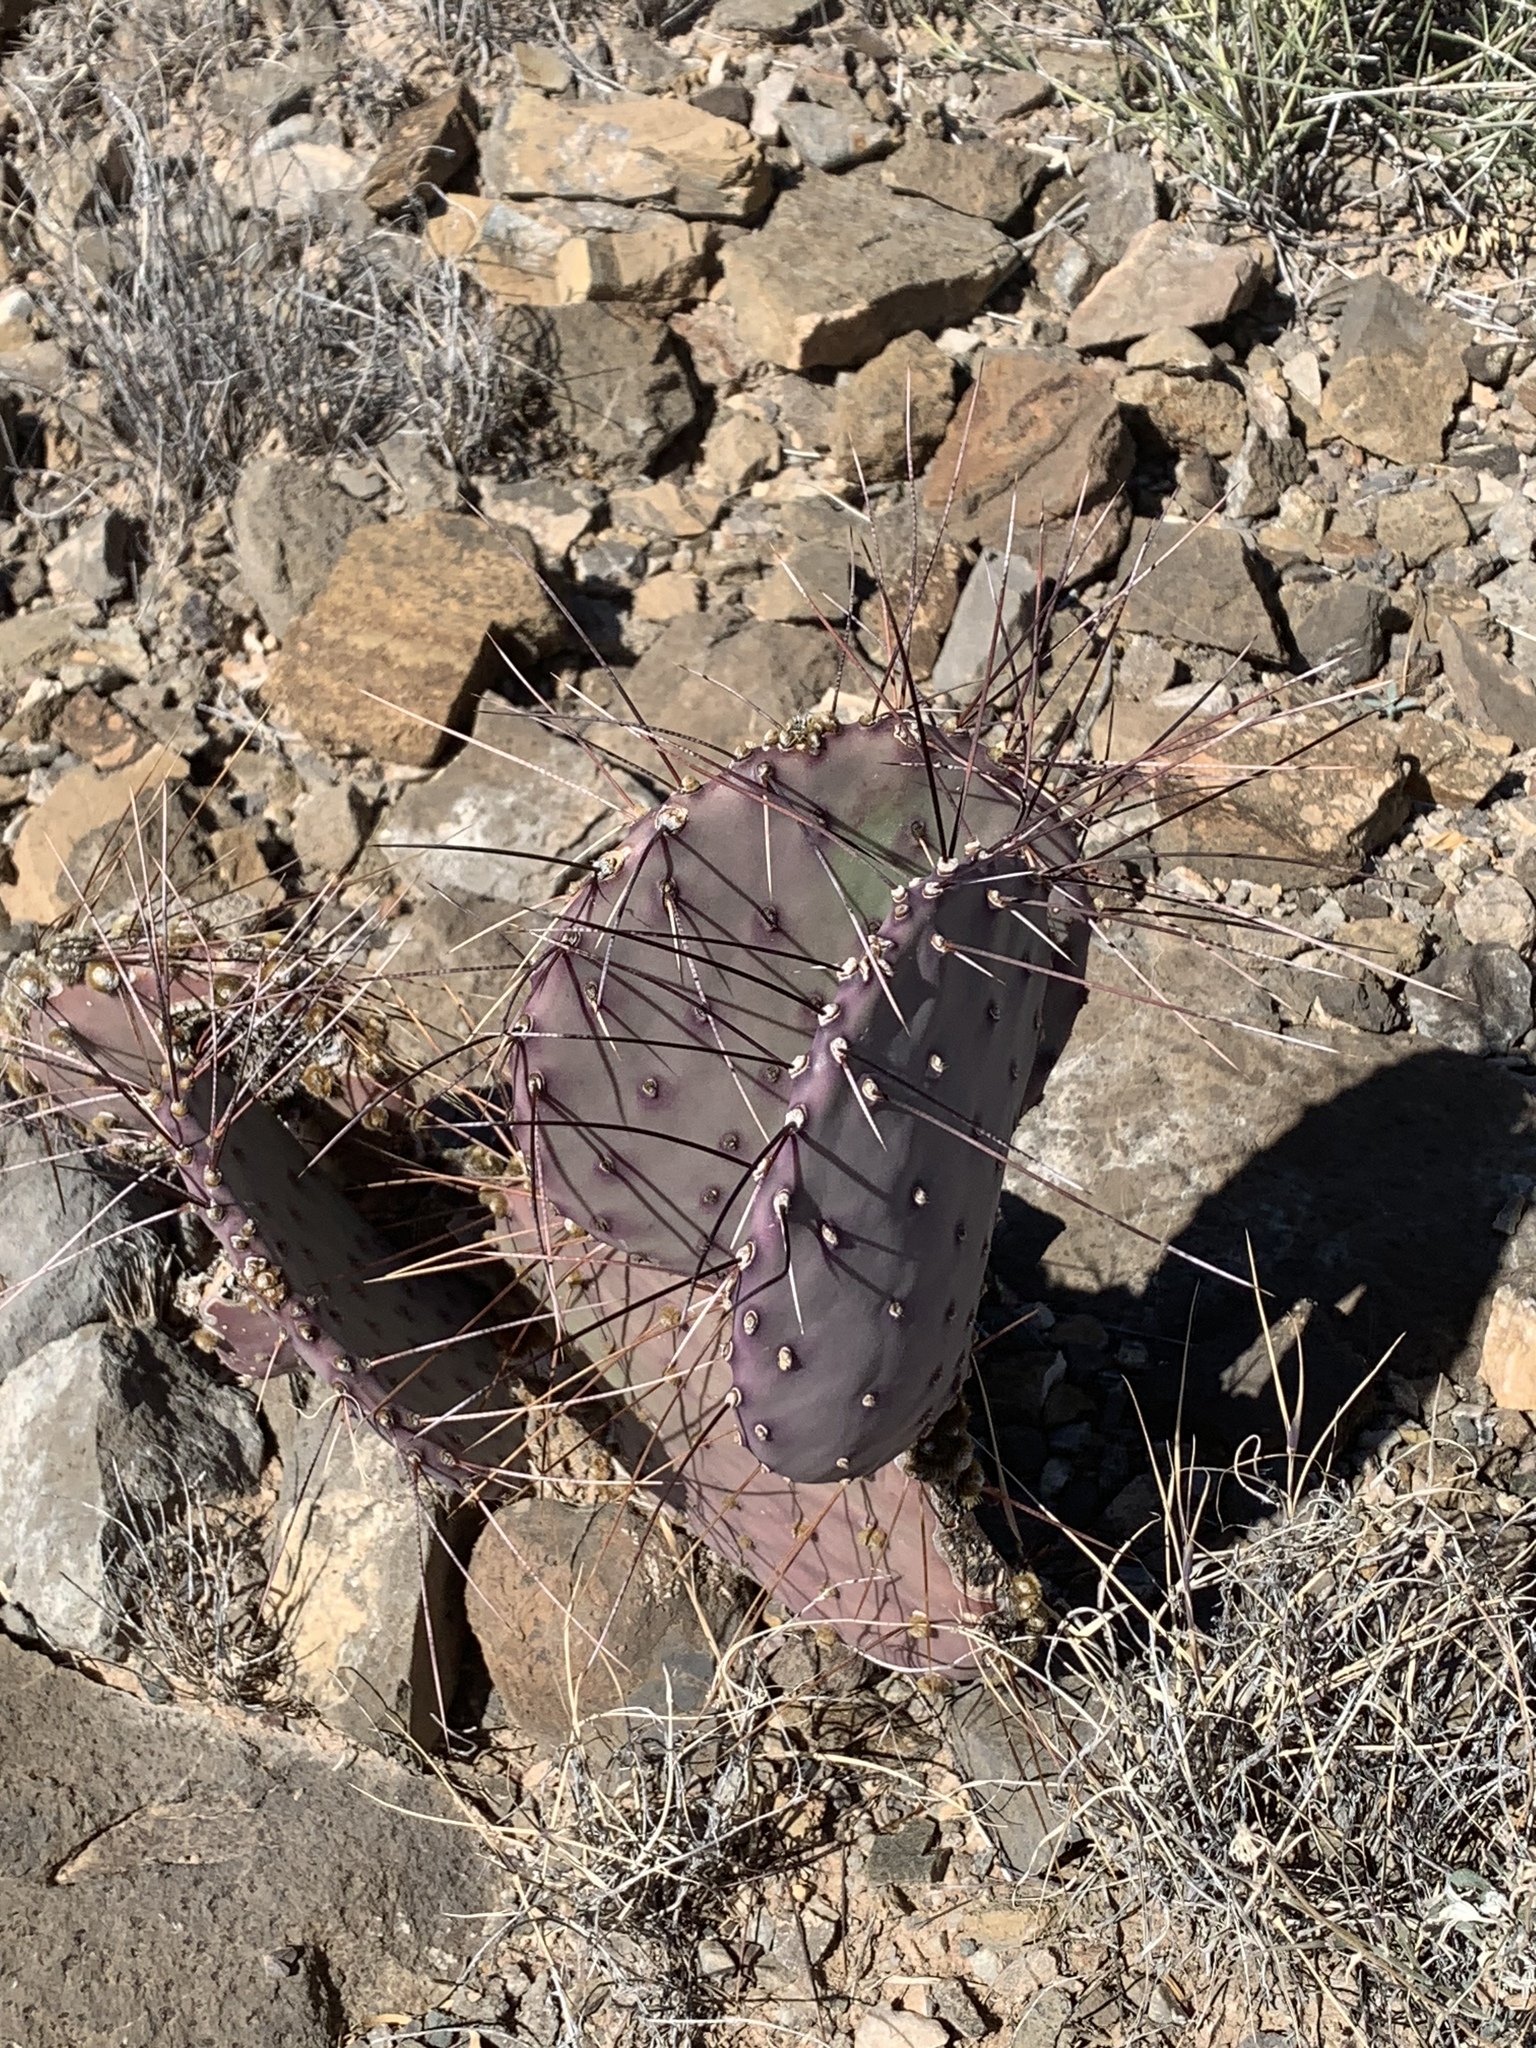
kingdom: Plantae
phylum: Tracheophyta
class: Magnoliopsida
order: Caryophyllales
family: Cactaceae
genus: Opuntia
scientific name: Opuntia macrocentra
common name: Purple prickly-pear
